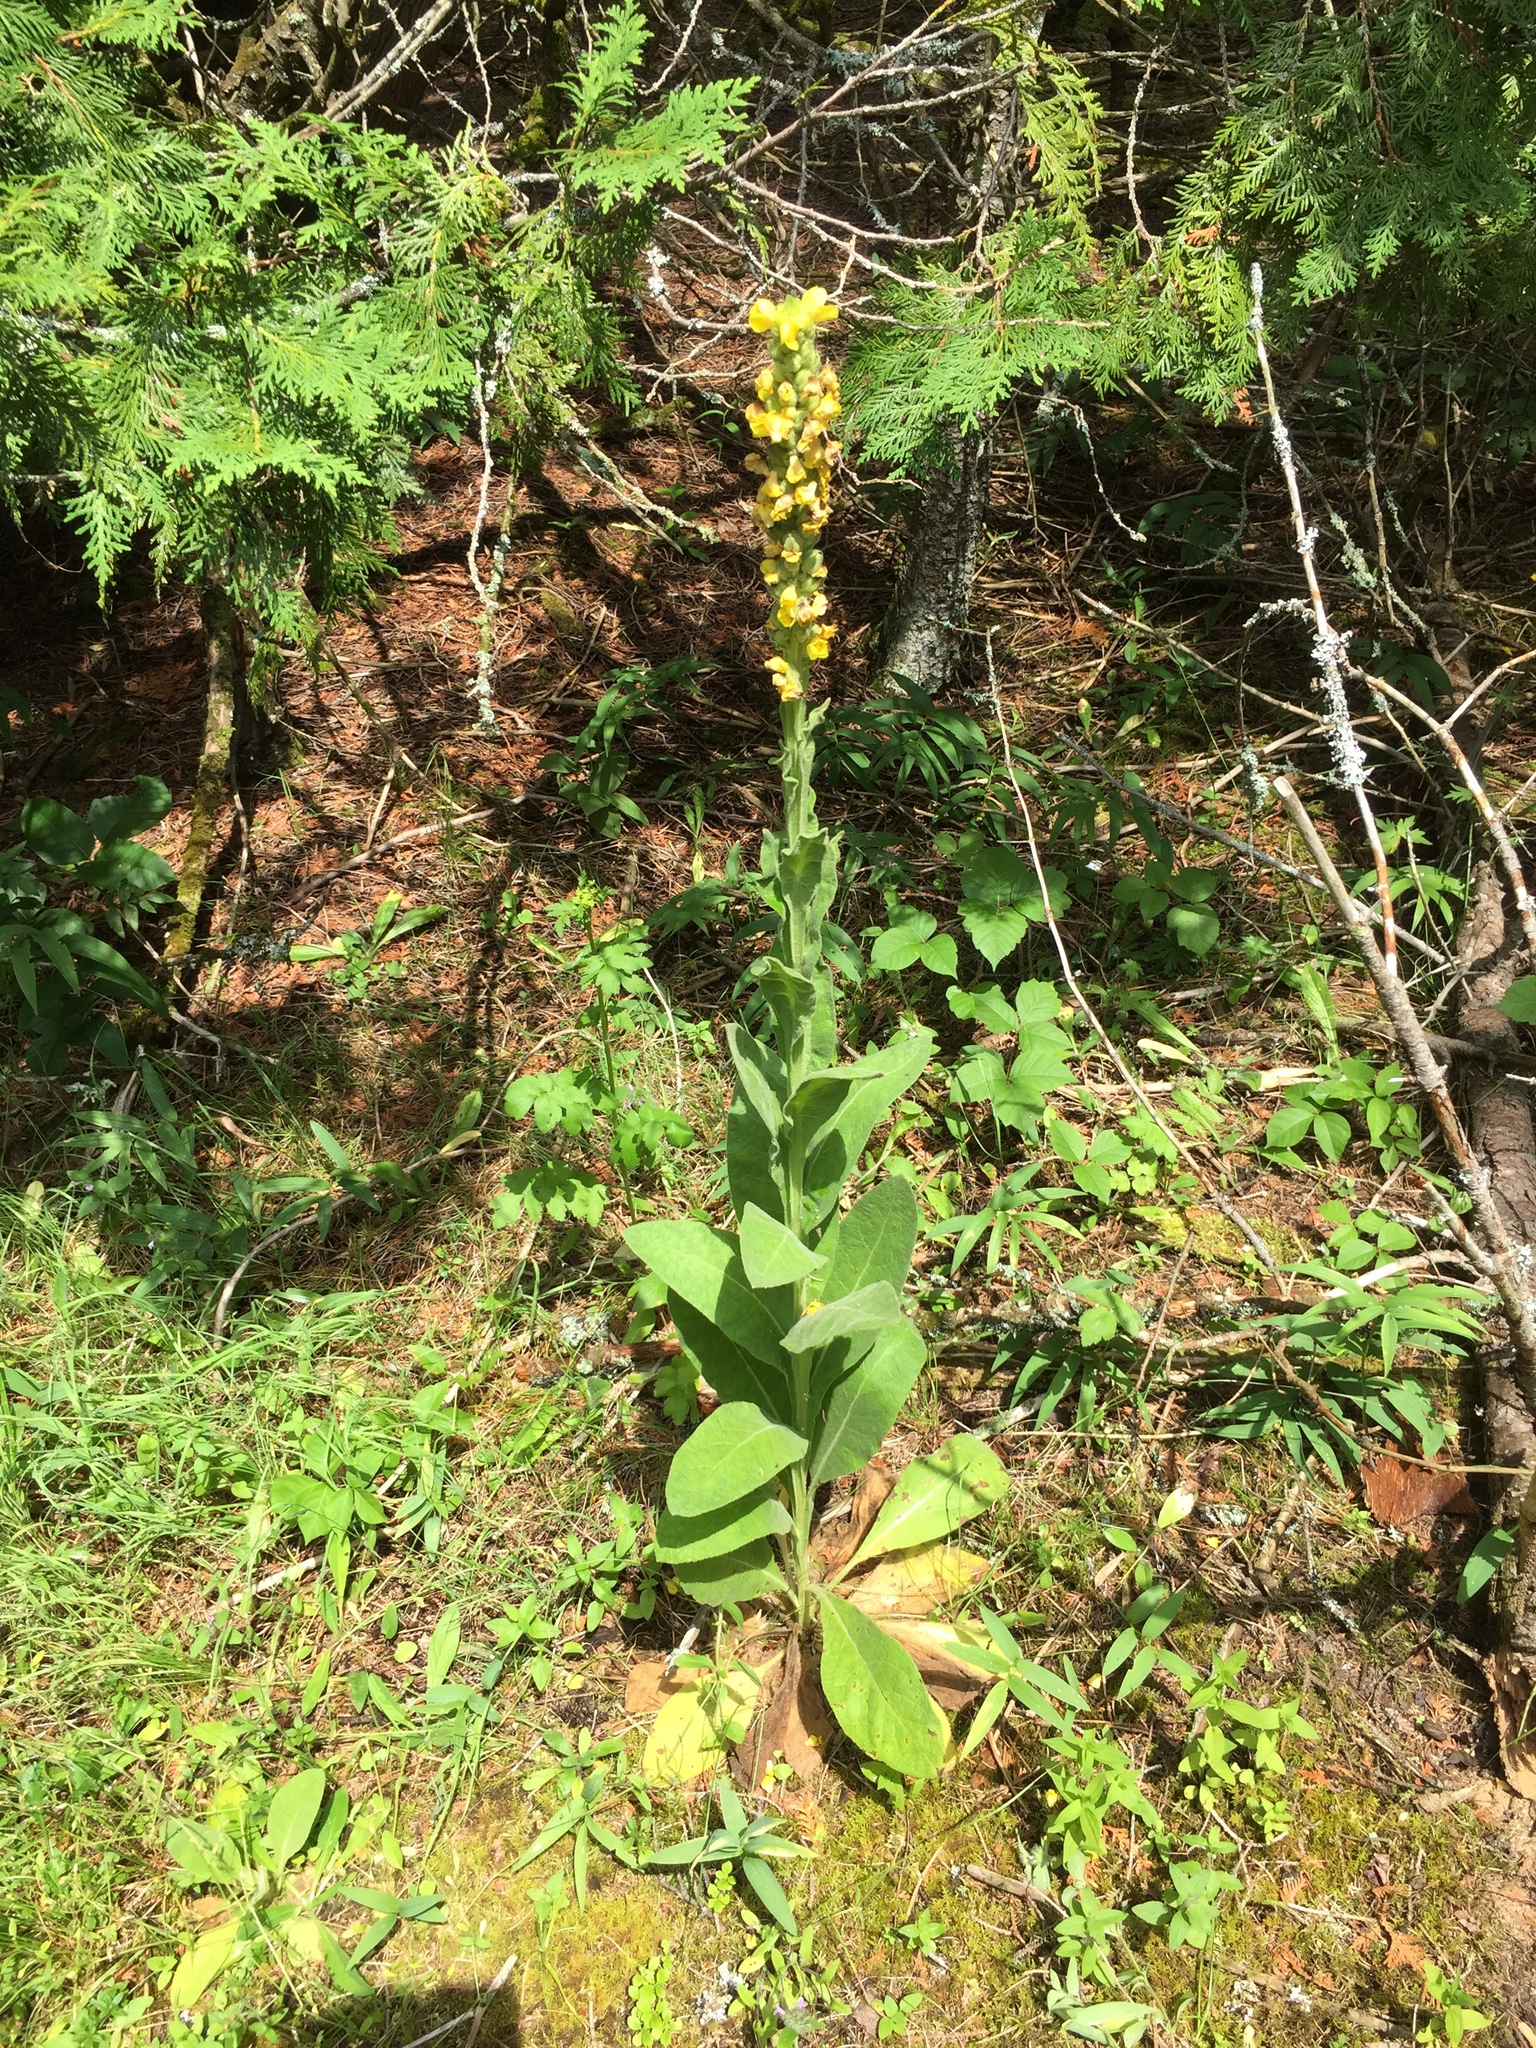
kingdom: Plantae
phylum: Tracheophyta
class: Magnoliopsida
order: Lamiales
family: Scrophulariaceae
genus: Verbascum
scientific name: Verbascum thapsus
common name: Common mullein
